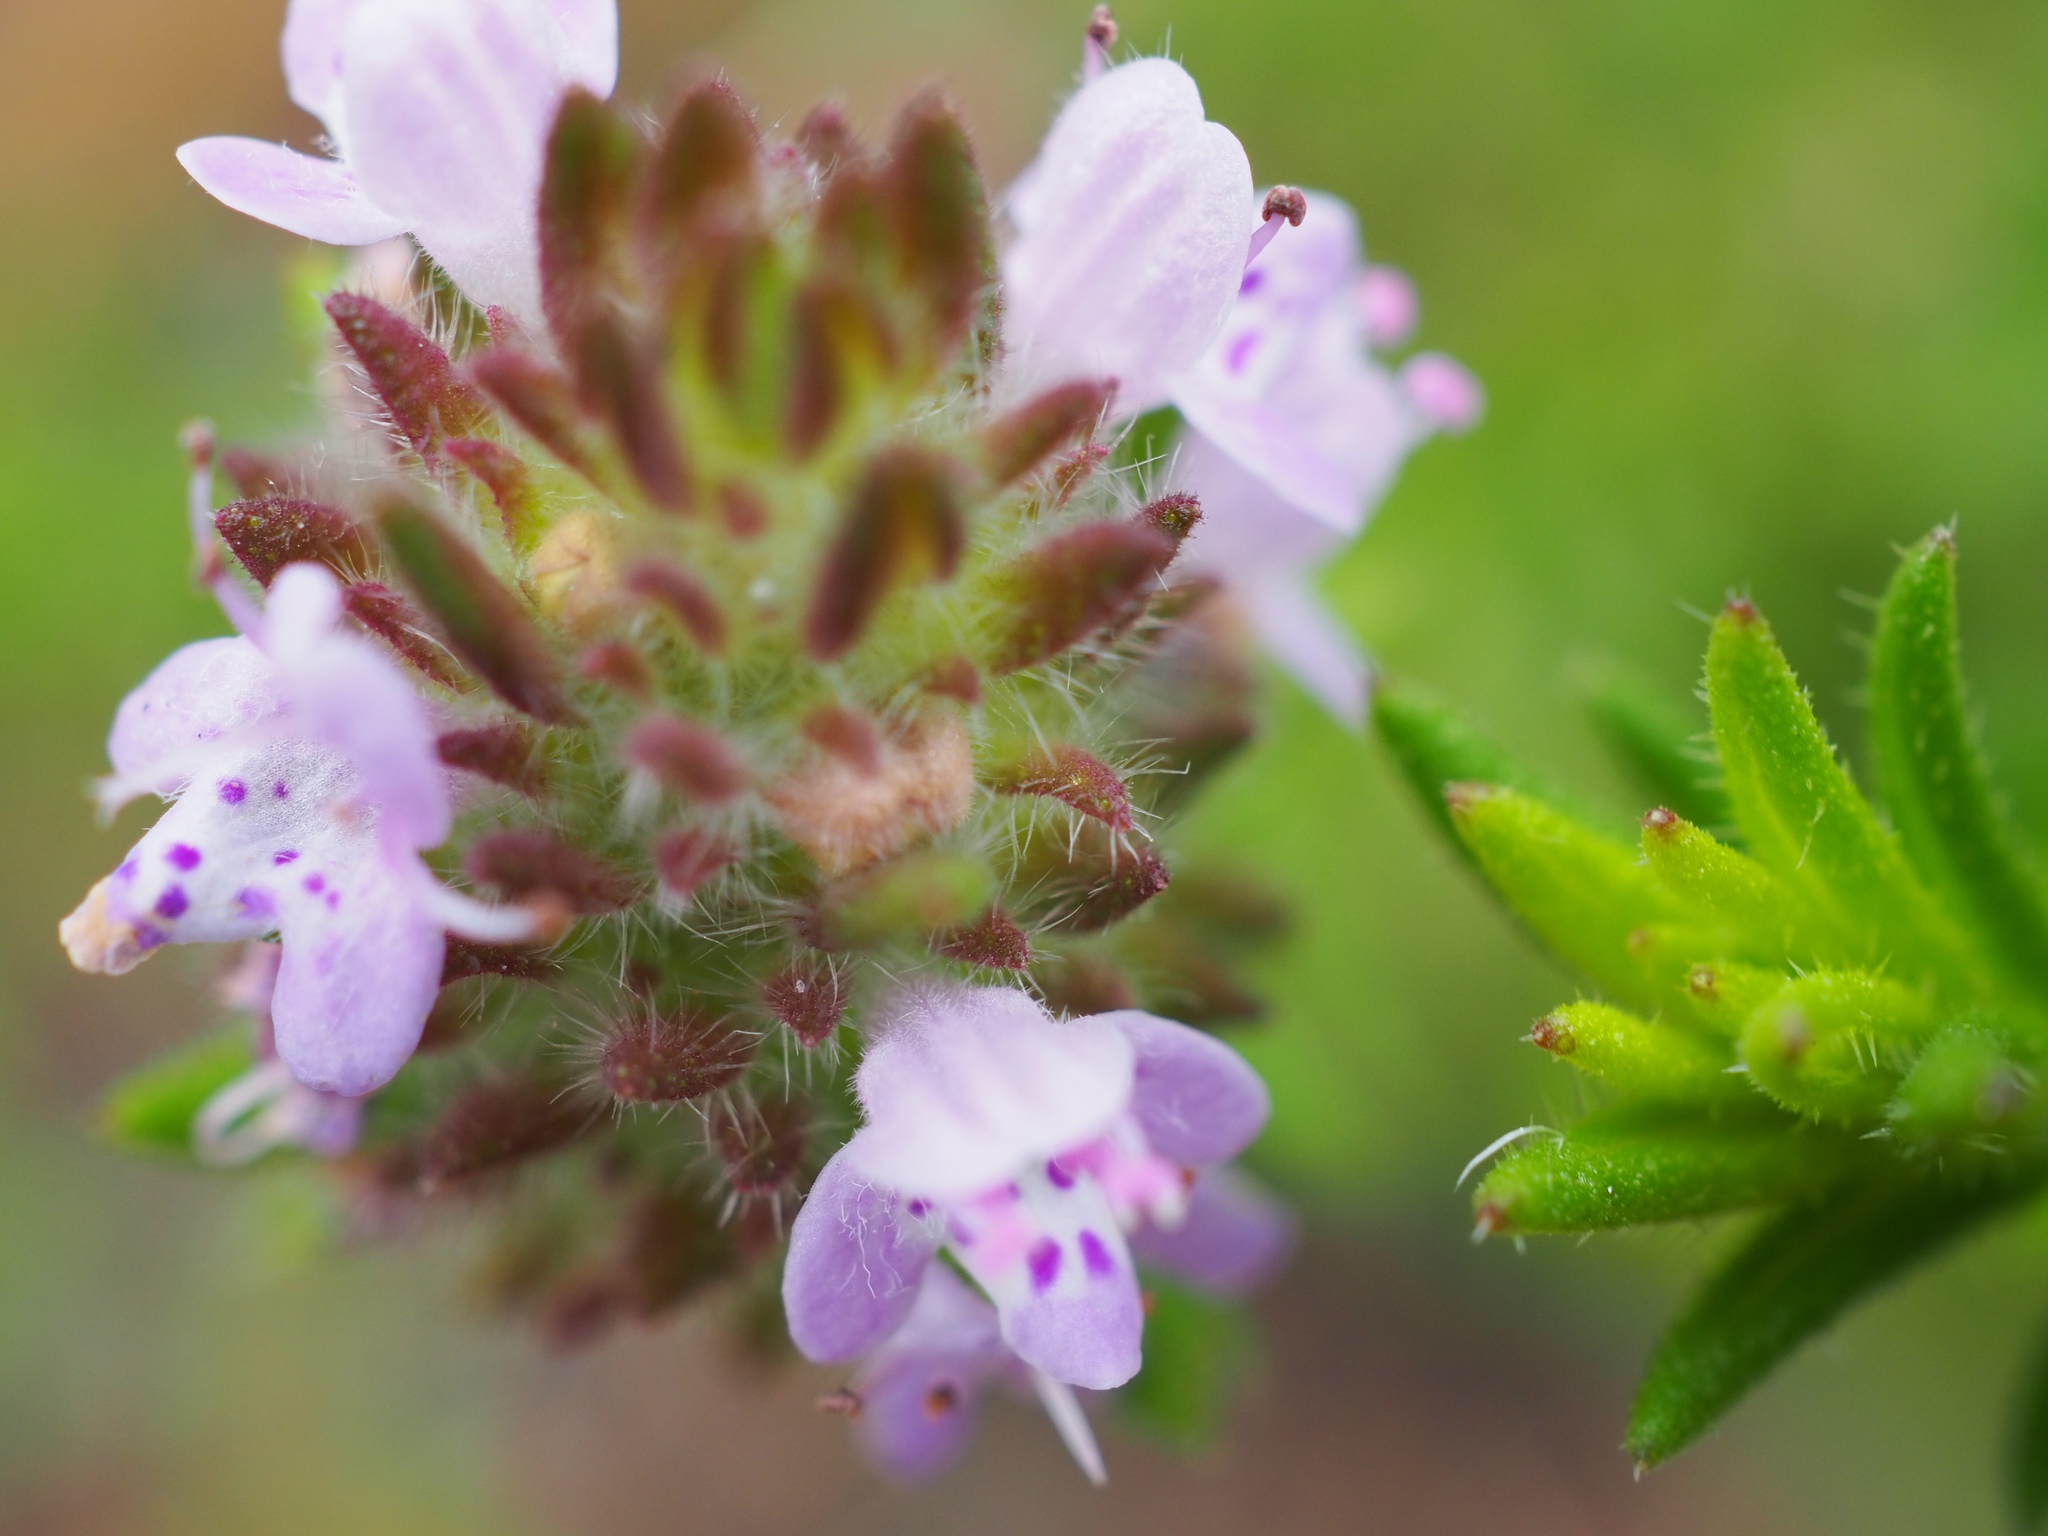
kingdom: Plantae
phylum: Tracheophyta
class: Magnoliopsida
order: Lamiales
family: Lamiaceae
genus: Piloblephis
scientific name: Piloblephis rigida
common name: Wild pennyroyal
